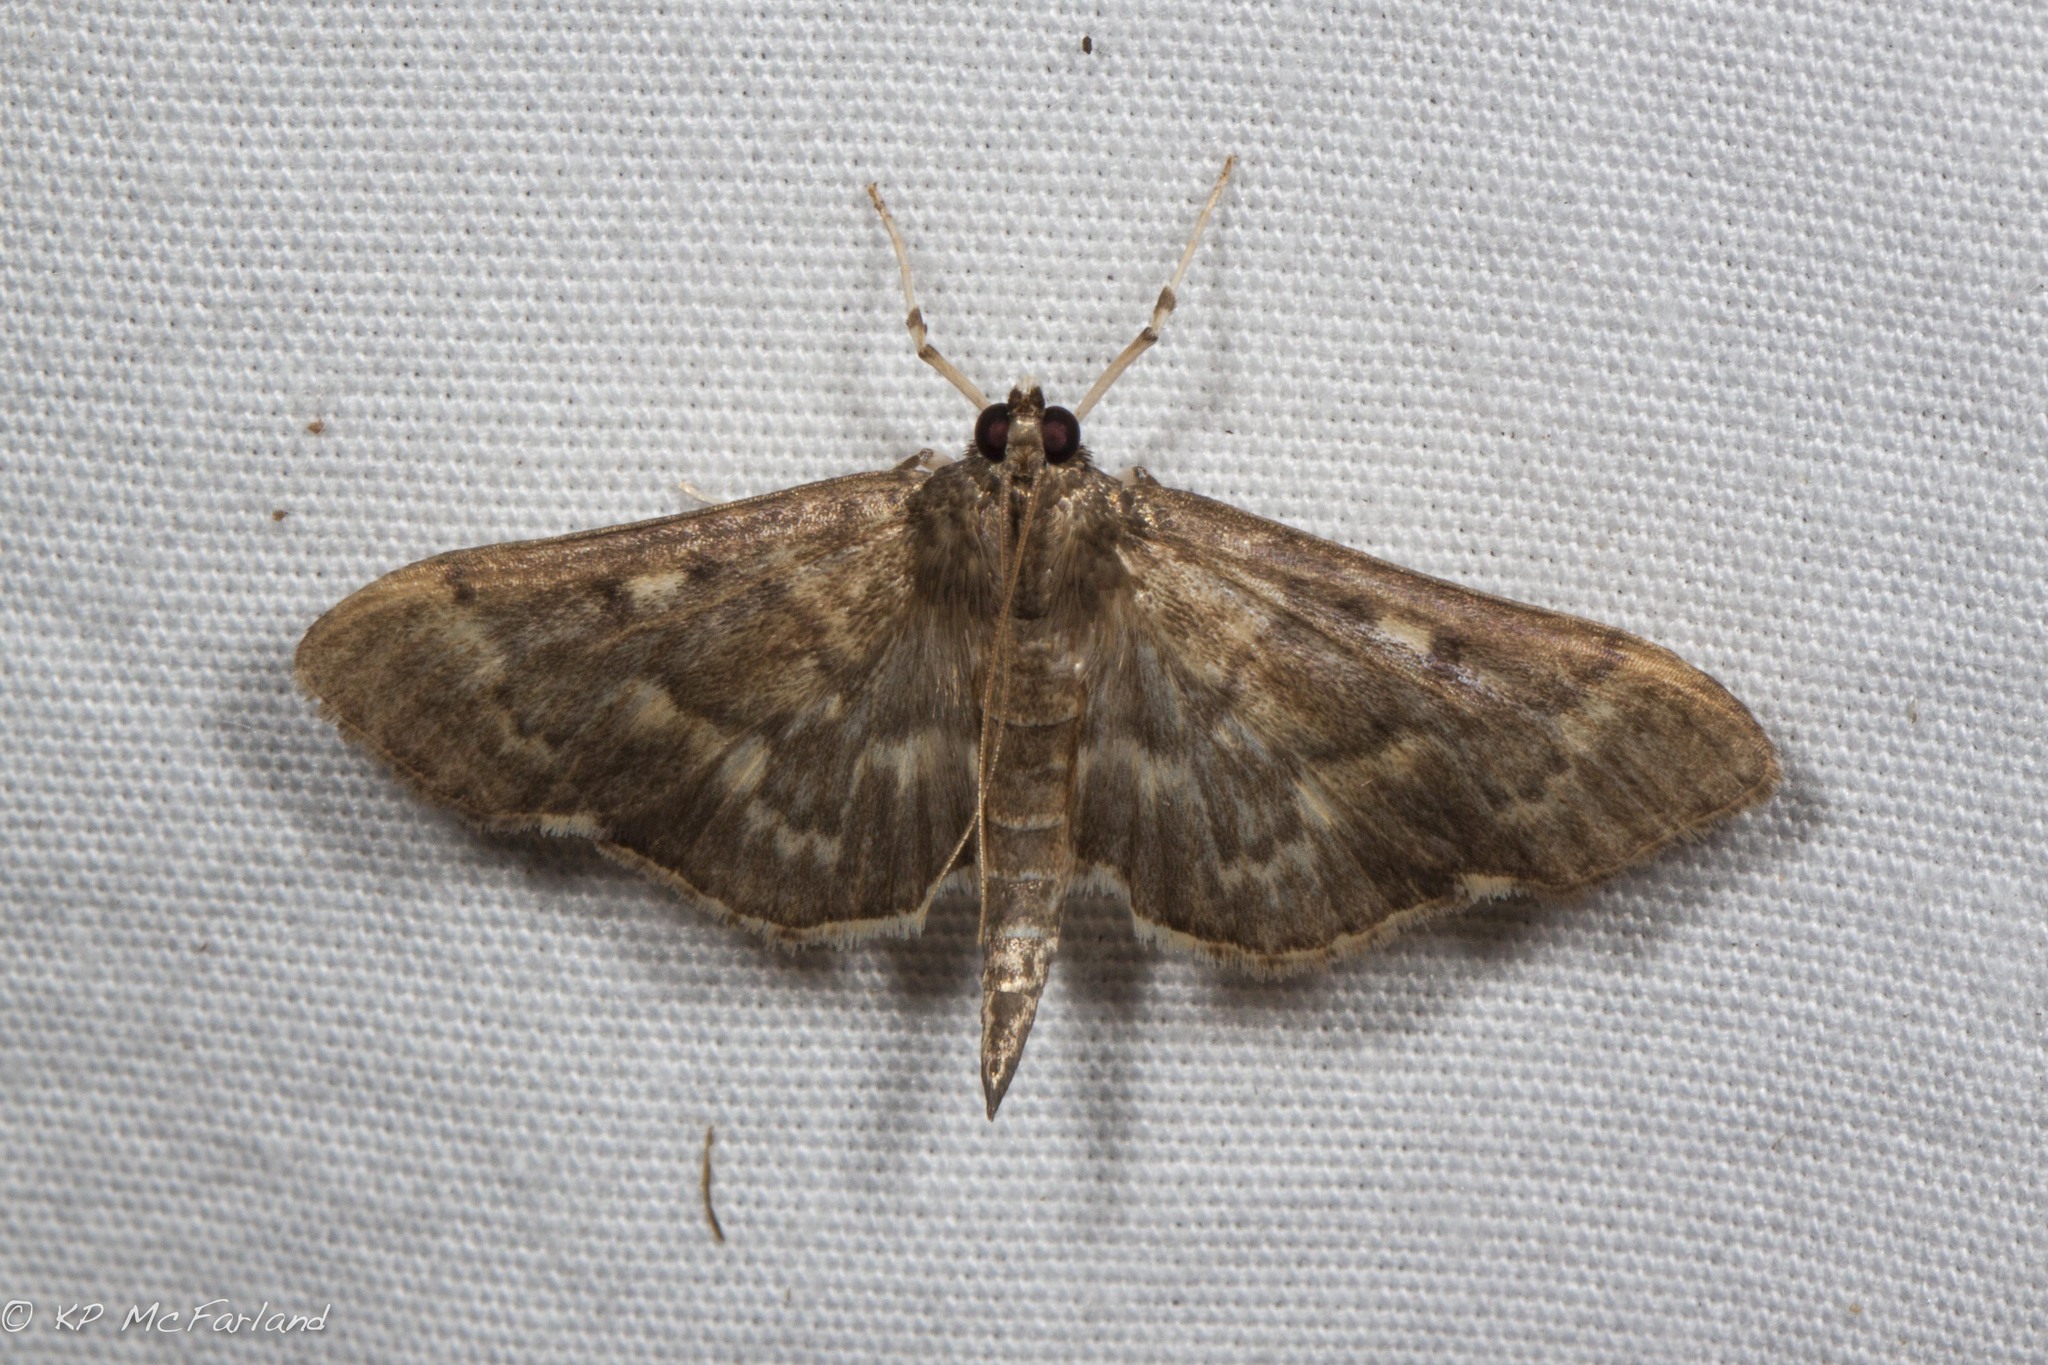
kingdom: Animalia
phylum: Arthropoda
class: Insecta
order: Lepidoptera
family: Crambidae
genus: Herpetogramma
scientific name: Herpetogramma aeglealis
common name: Serpentine webworm moth
